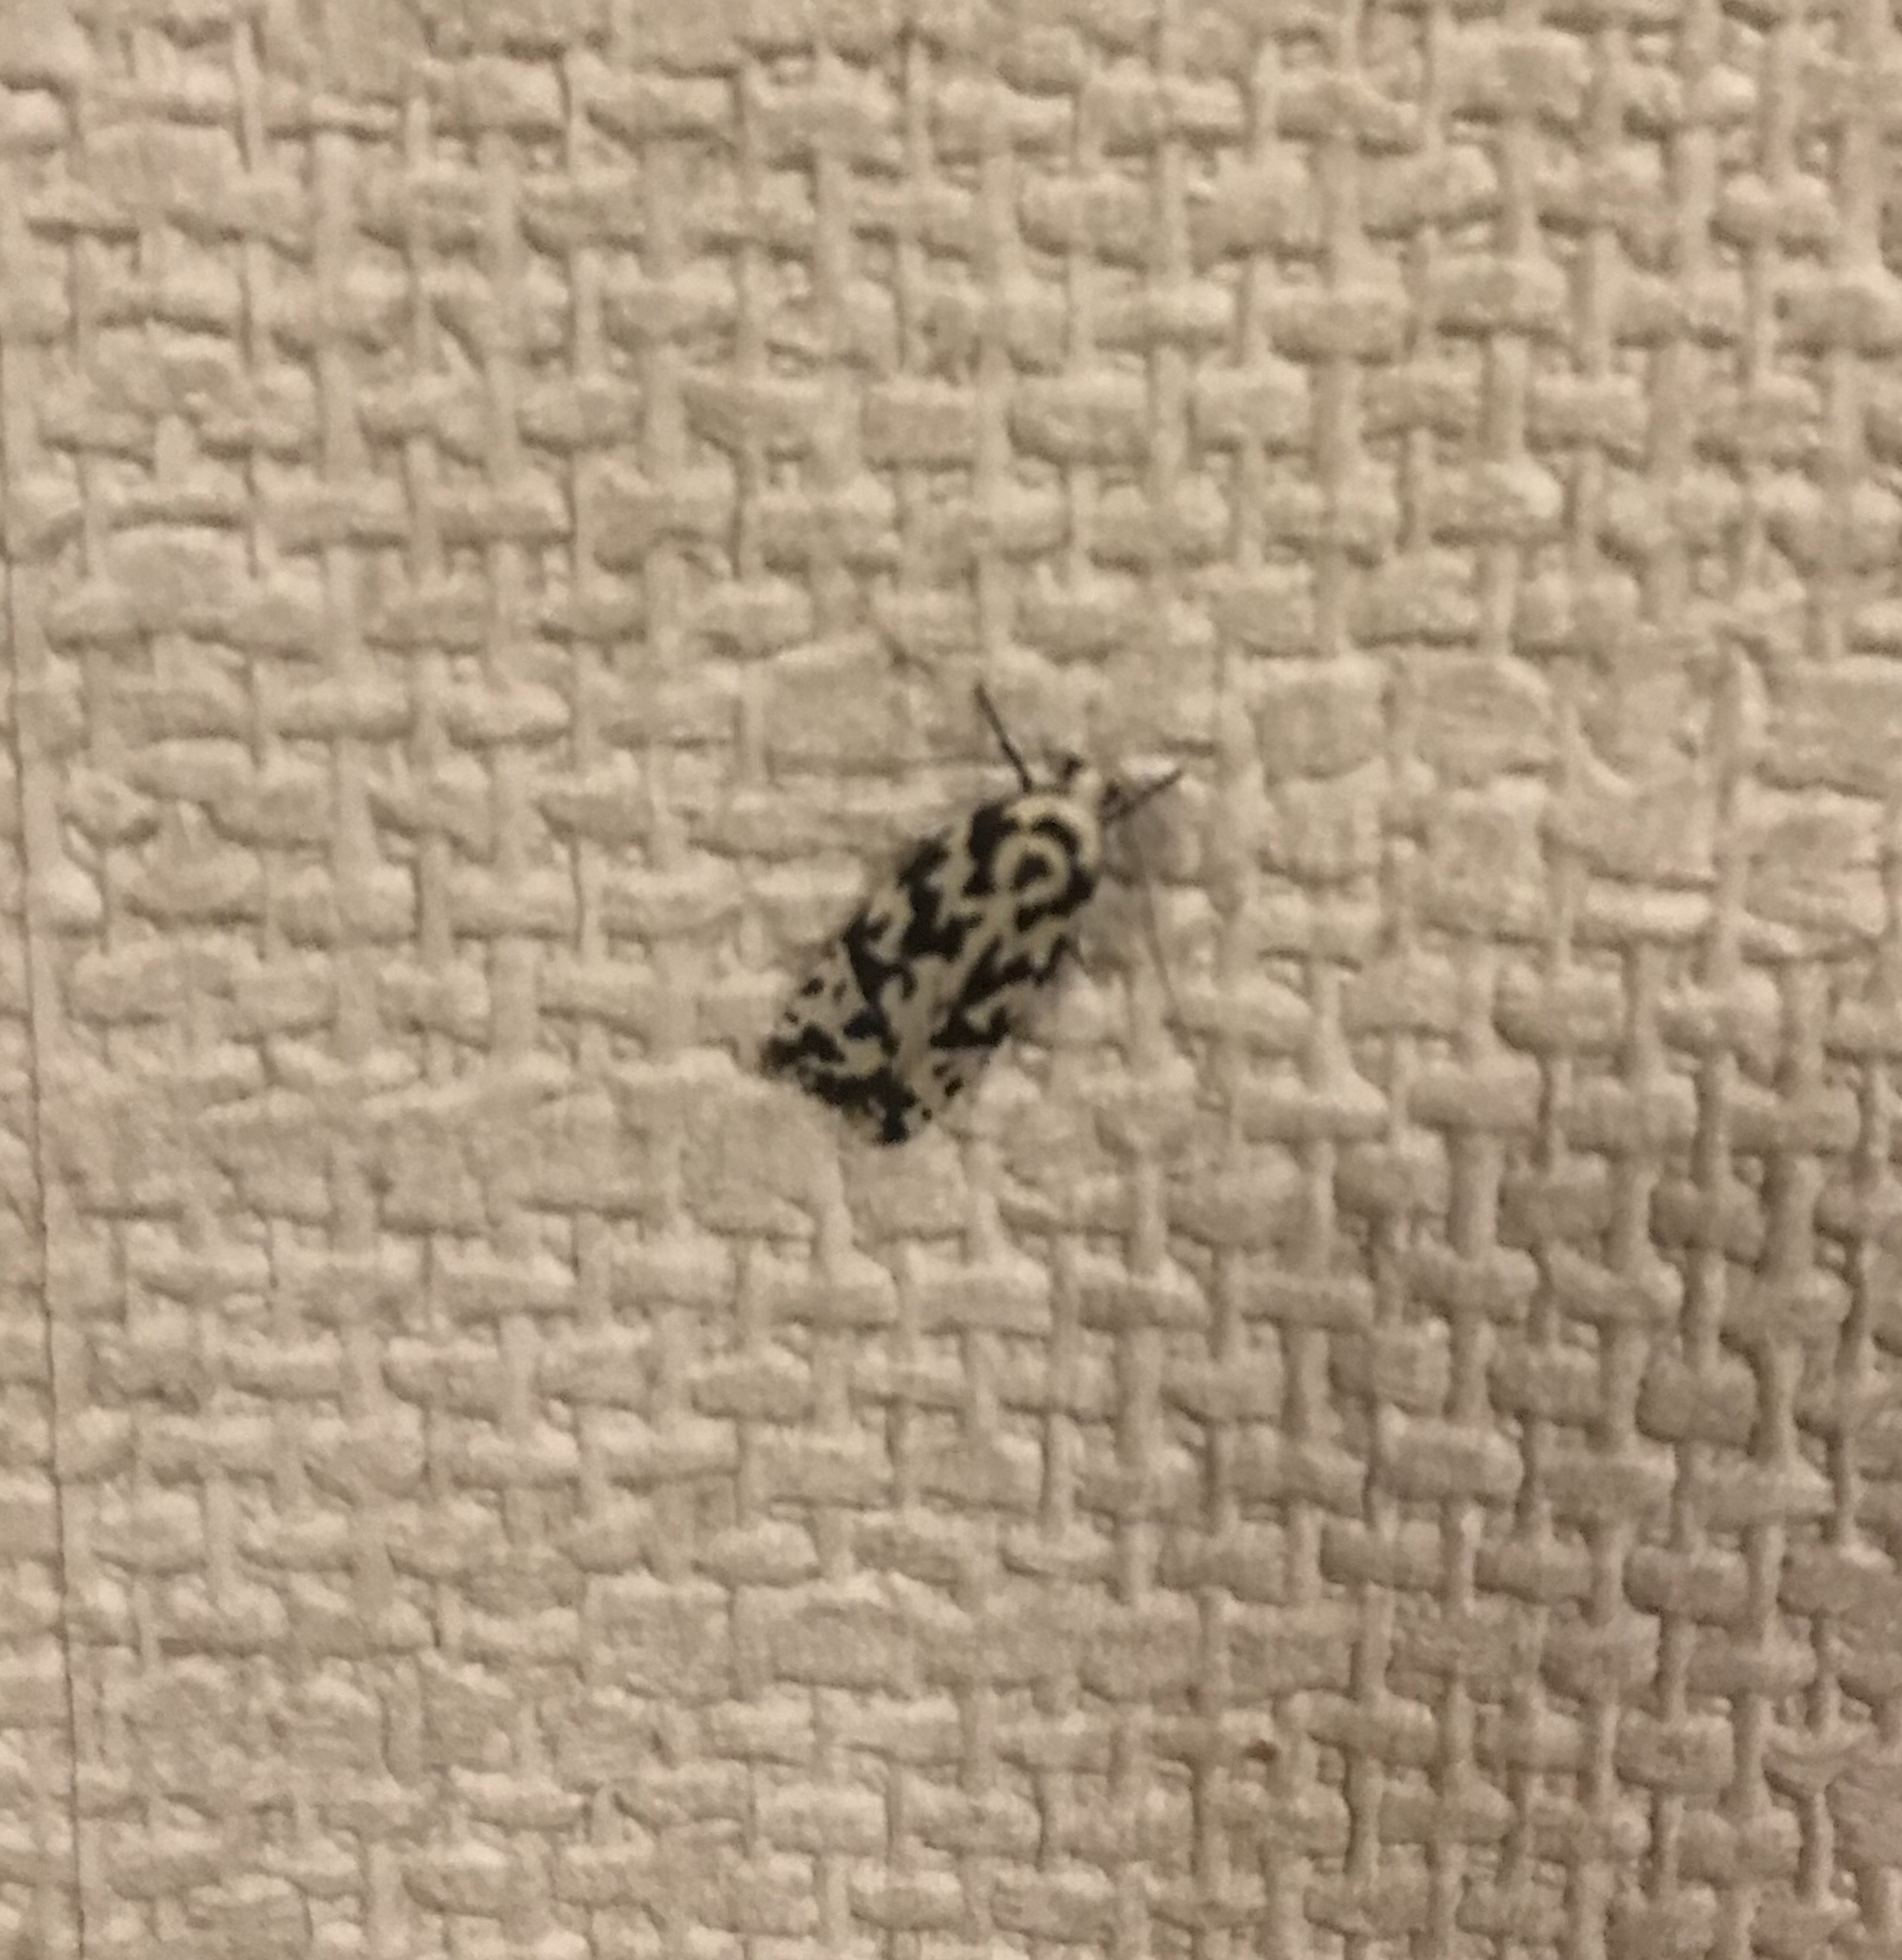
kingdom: Animalia
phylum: Arthropoda
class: Insecta
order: Lepidoptera
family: Oecophoridae
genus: Izatha
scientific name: Izatha
